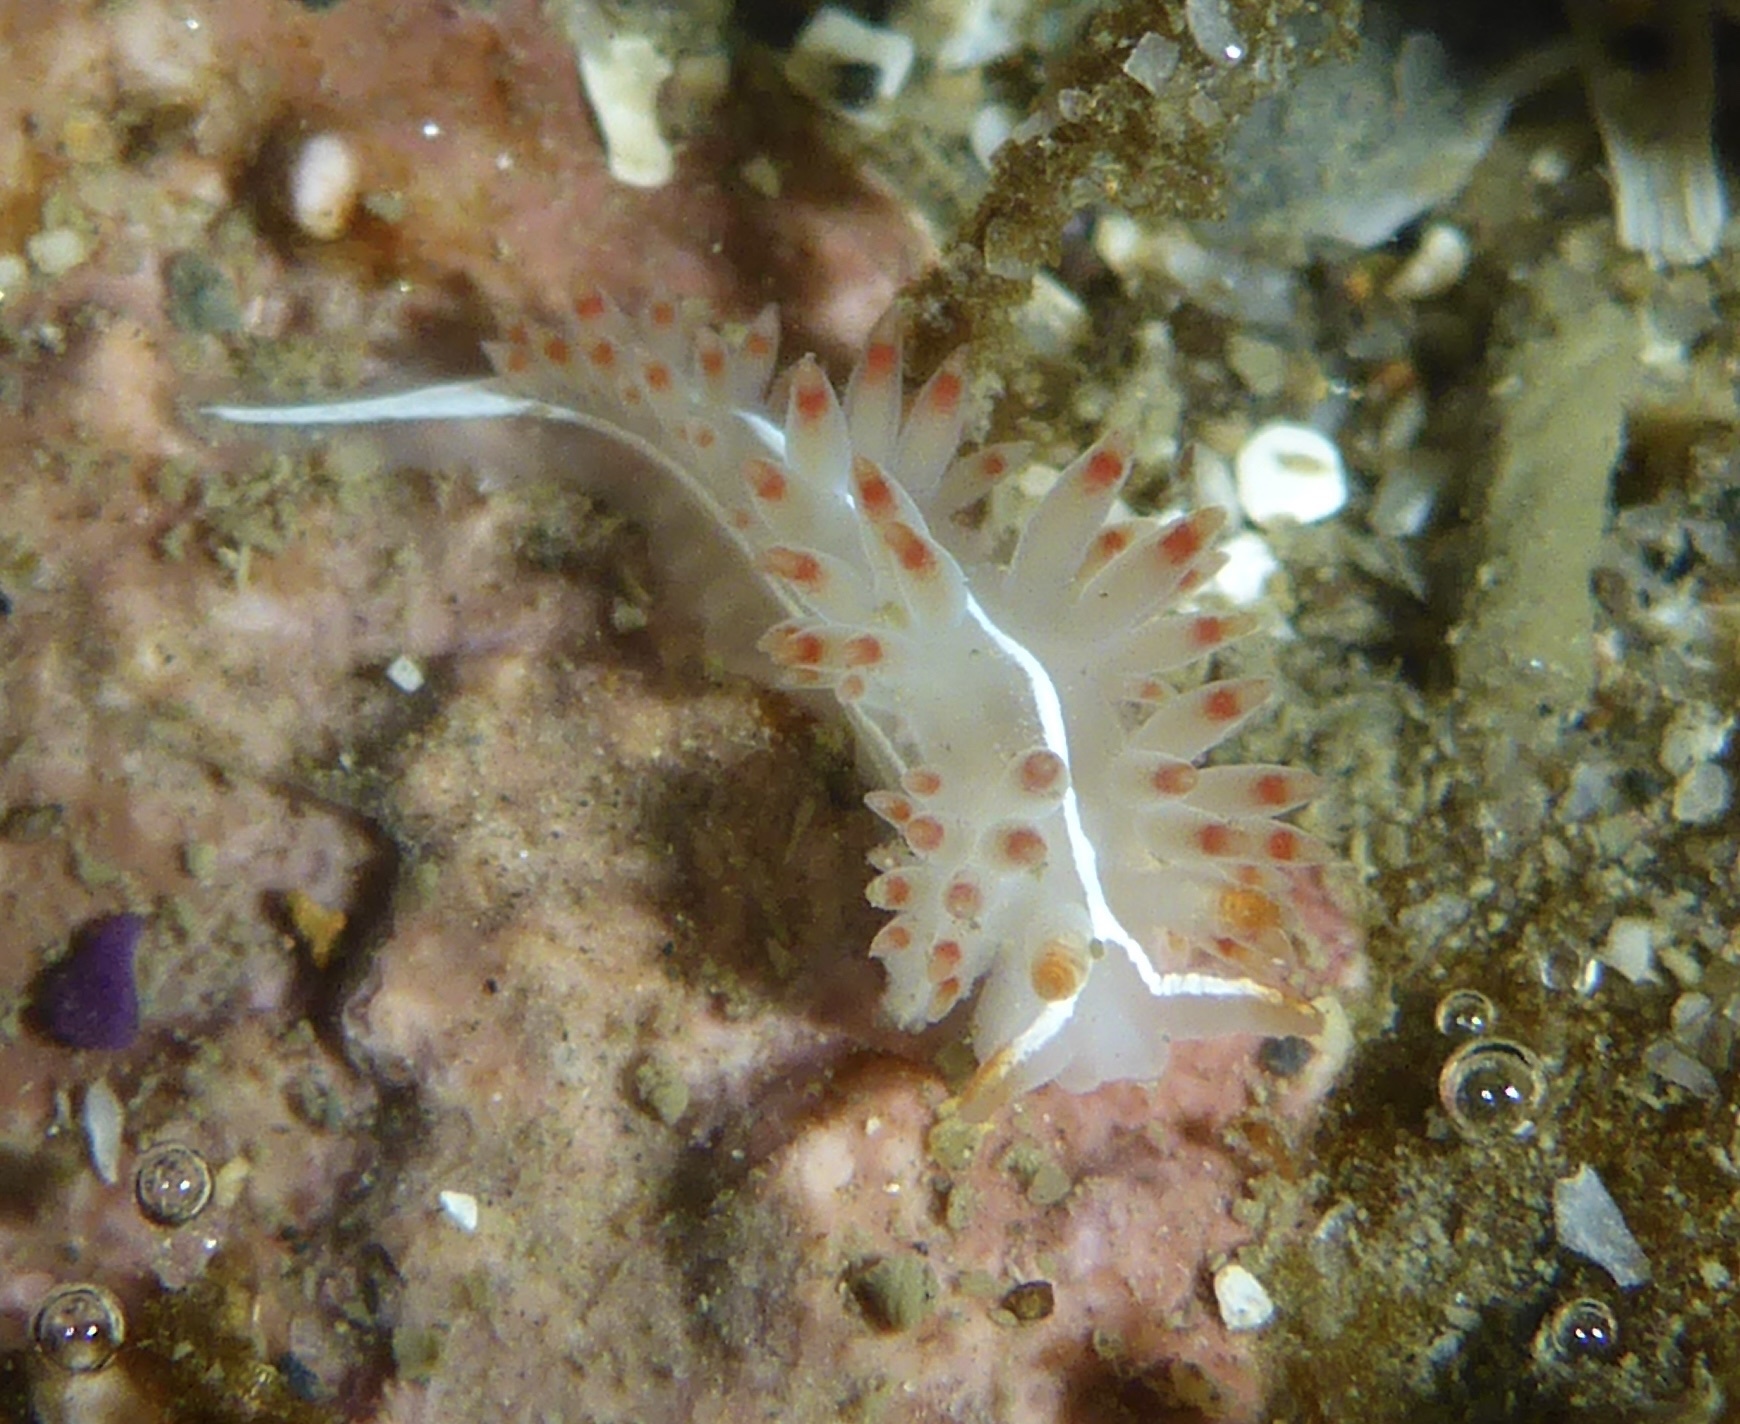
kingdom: Animalia
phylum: Mollusca
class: Gastropoda
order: Nudibranchia
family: Coryphellidae
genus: Coryphella
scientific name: Coryphella trilineata
